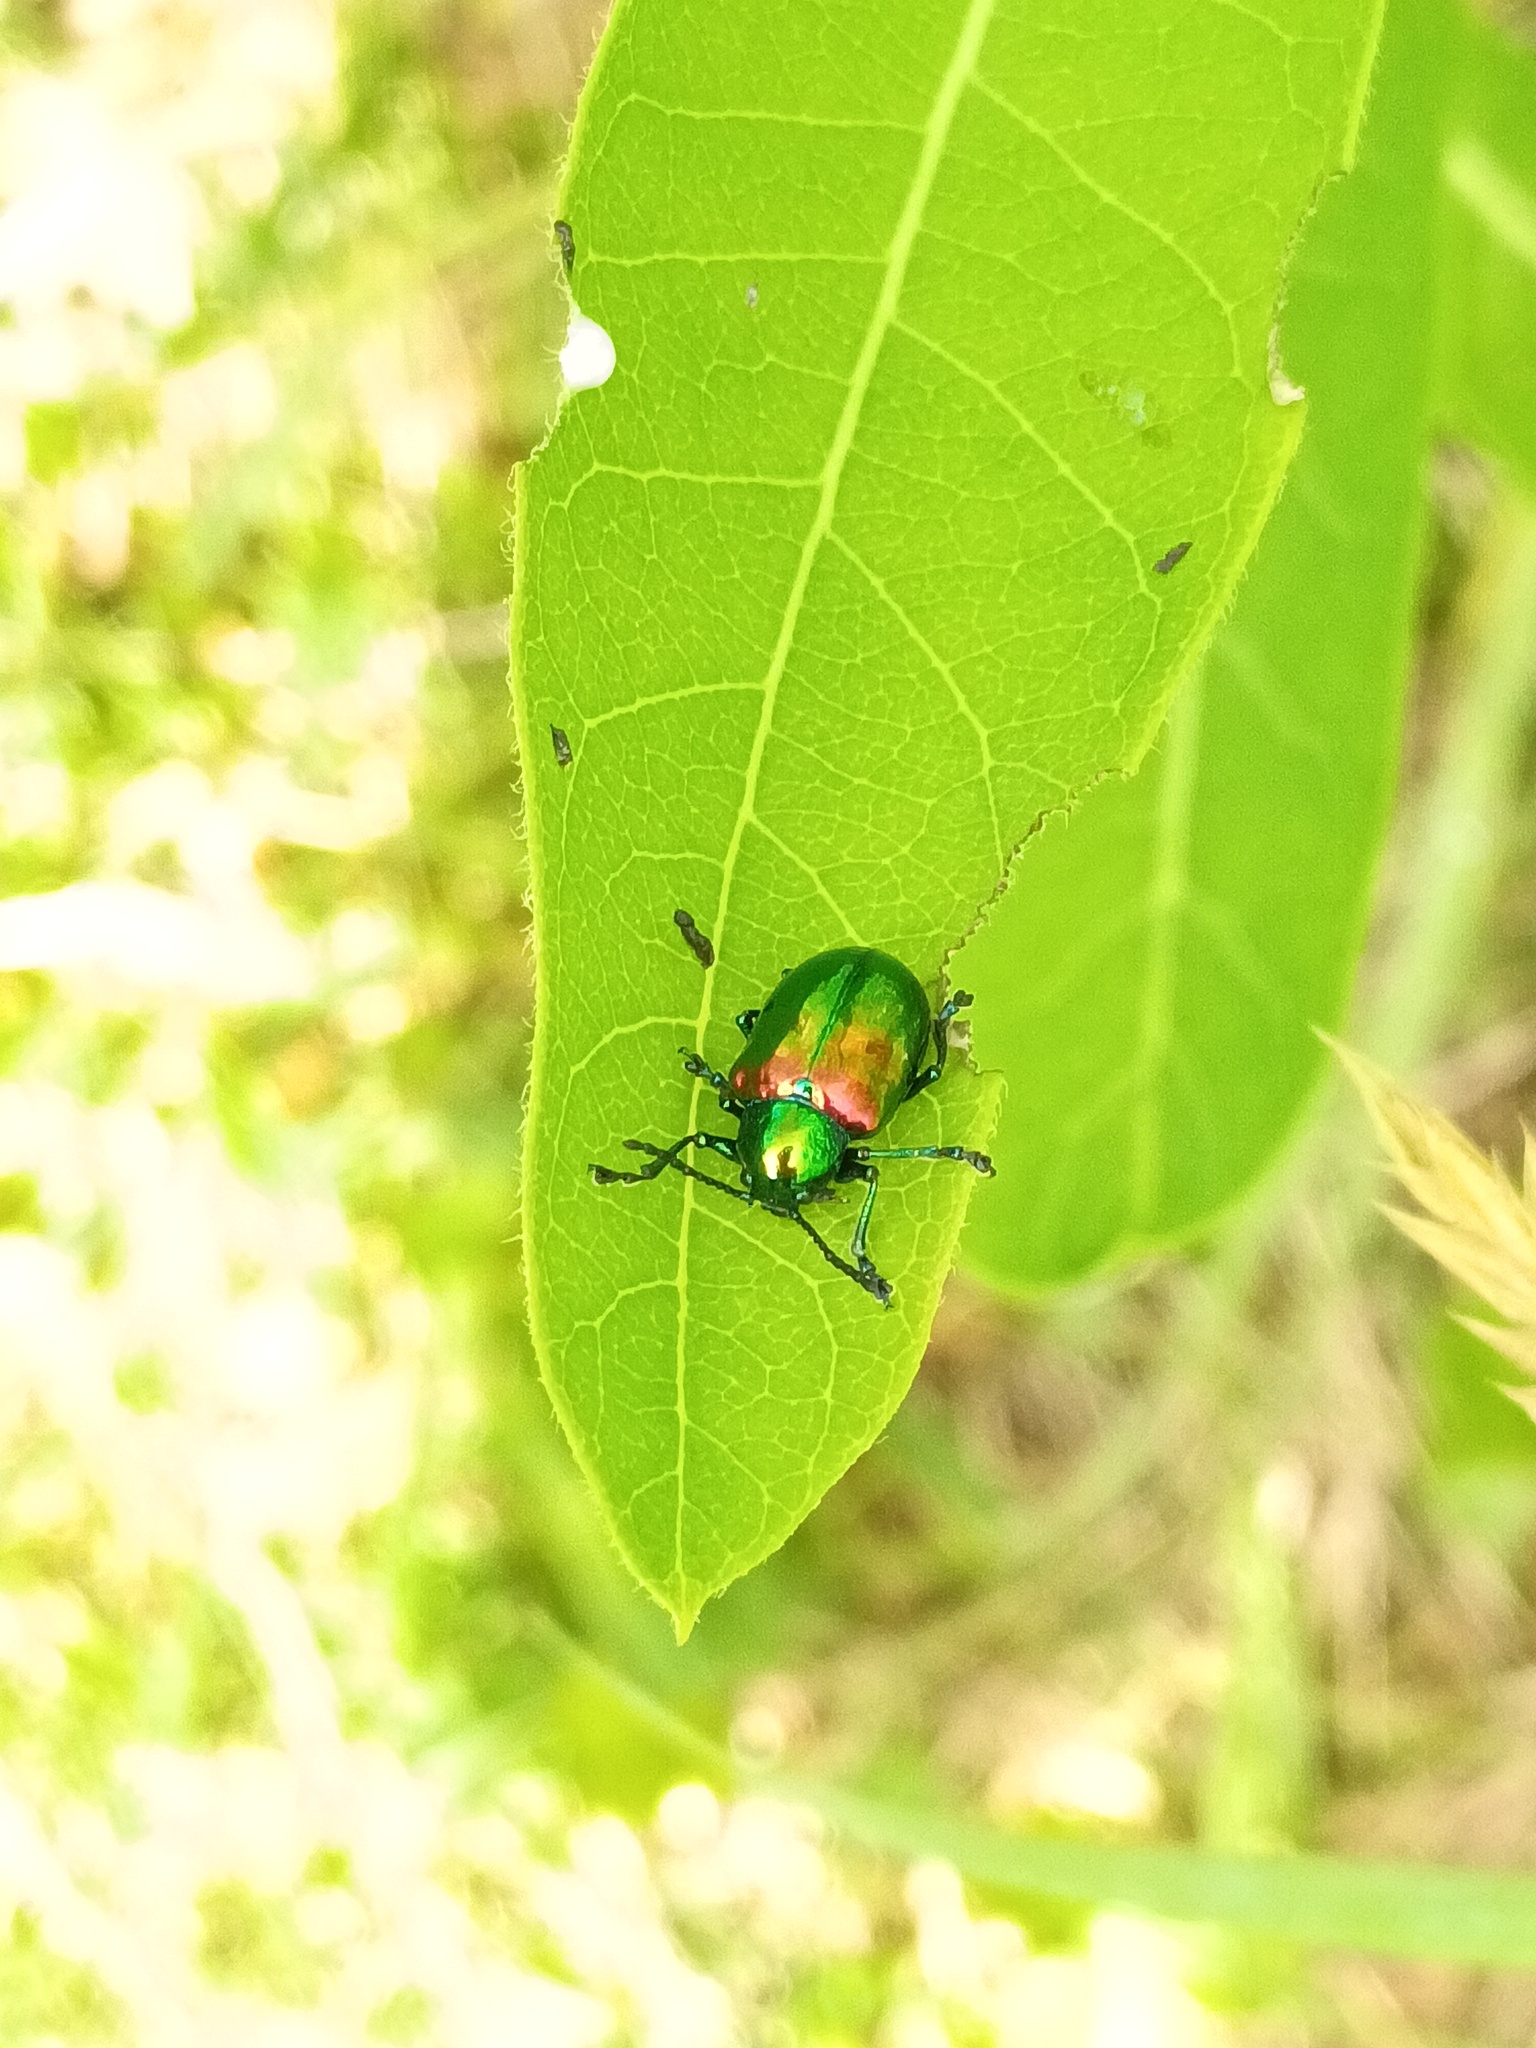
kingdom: Animalia
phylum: Arthropoda
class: Insecta
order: Coleoptera
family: Chrysomelidae
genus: Chrysochus
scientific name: Chrysochus auratus
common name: Dogbane leaf beetle
